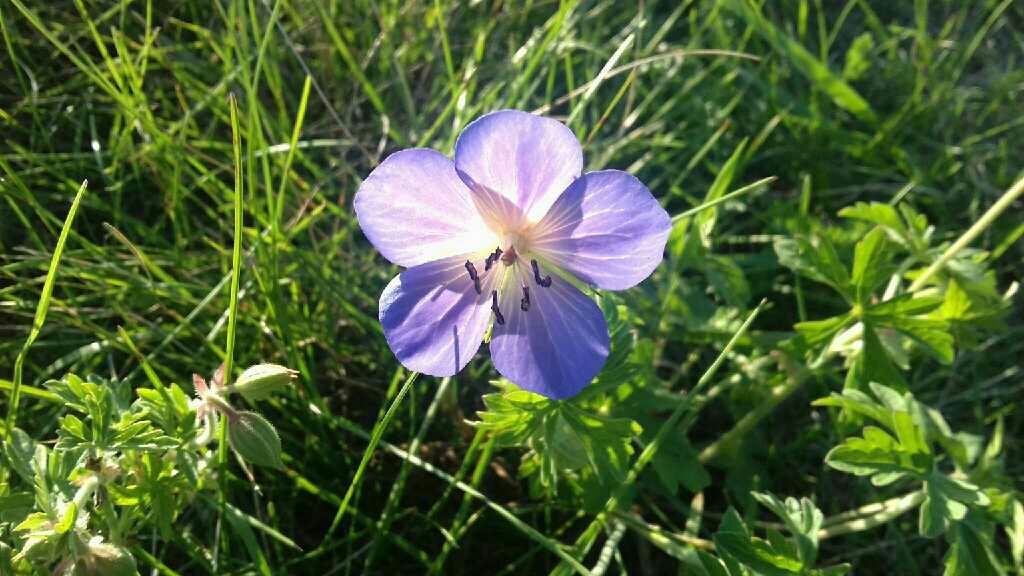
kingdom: Plantae
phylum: Tracheophyta
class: Magnoliopsida
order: Geraniales
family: Geraniaceae
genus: Geranium
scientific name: Geranium pratense
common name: Meadow crane's-bill
